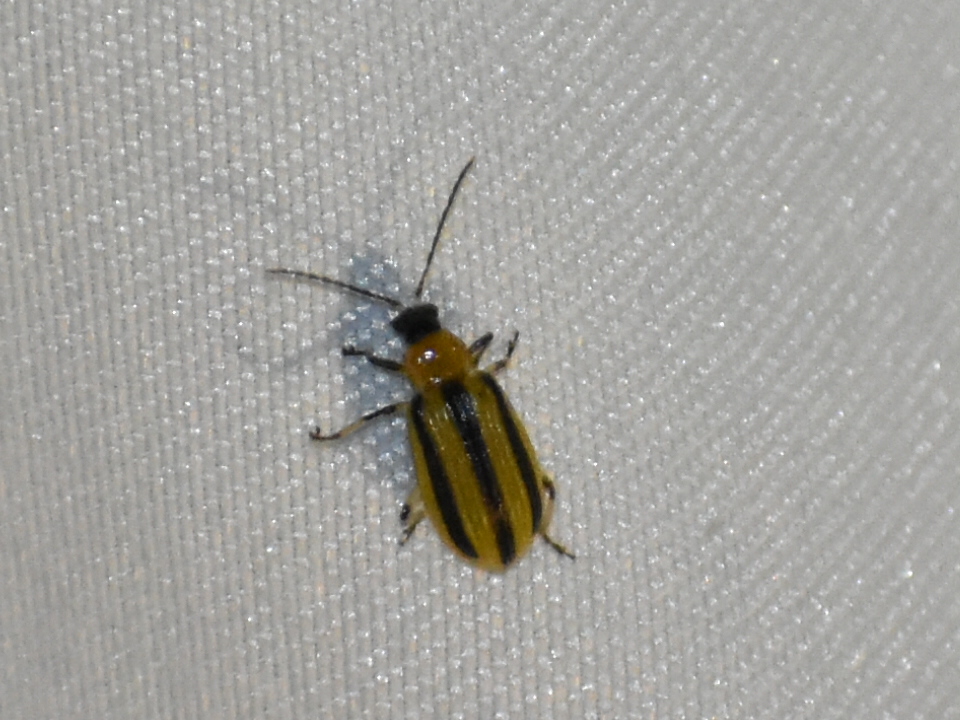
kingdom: Animalia
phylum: Arthropoda
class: Insecta
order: Coleoptera
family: Chrysomelidae
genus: Acalymma
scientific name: Acalymma vittatum
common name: Striped cucumber beetle
